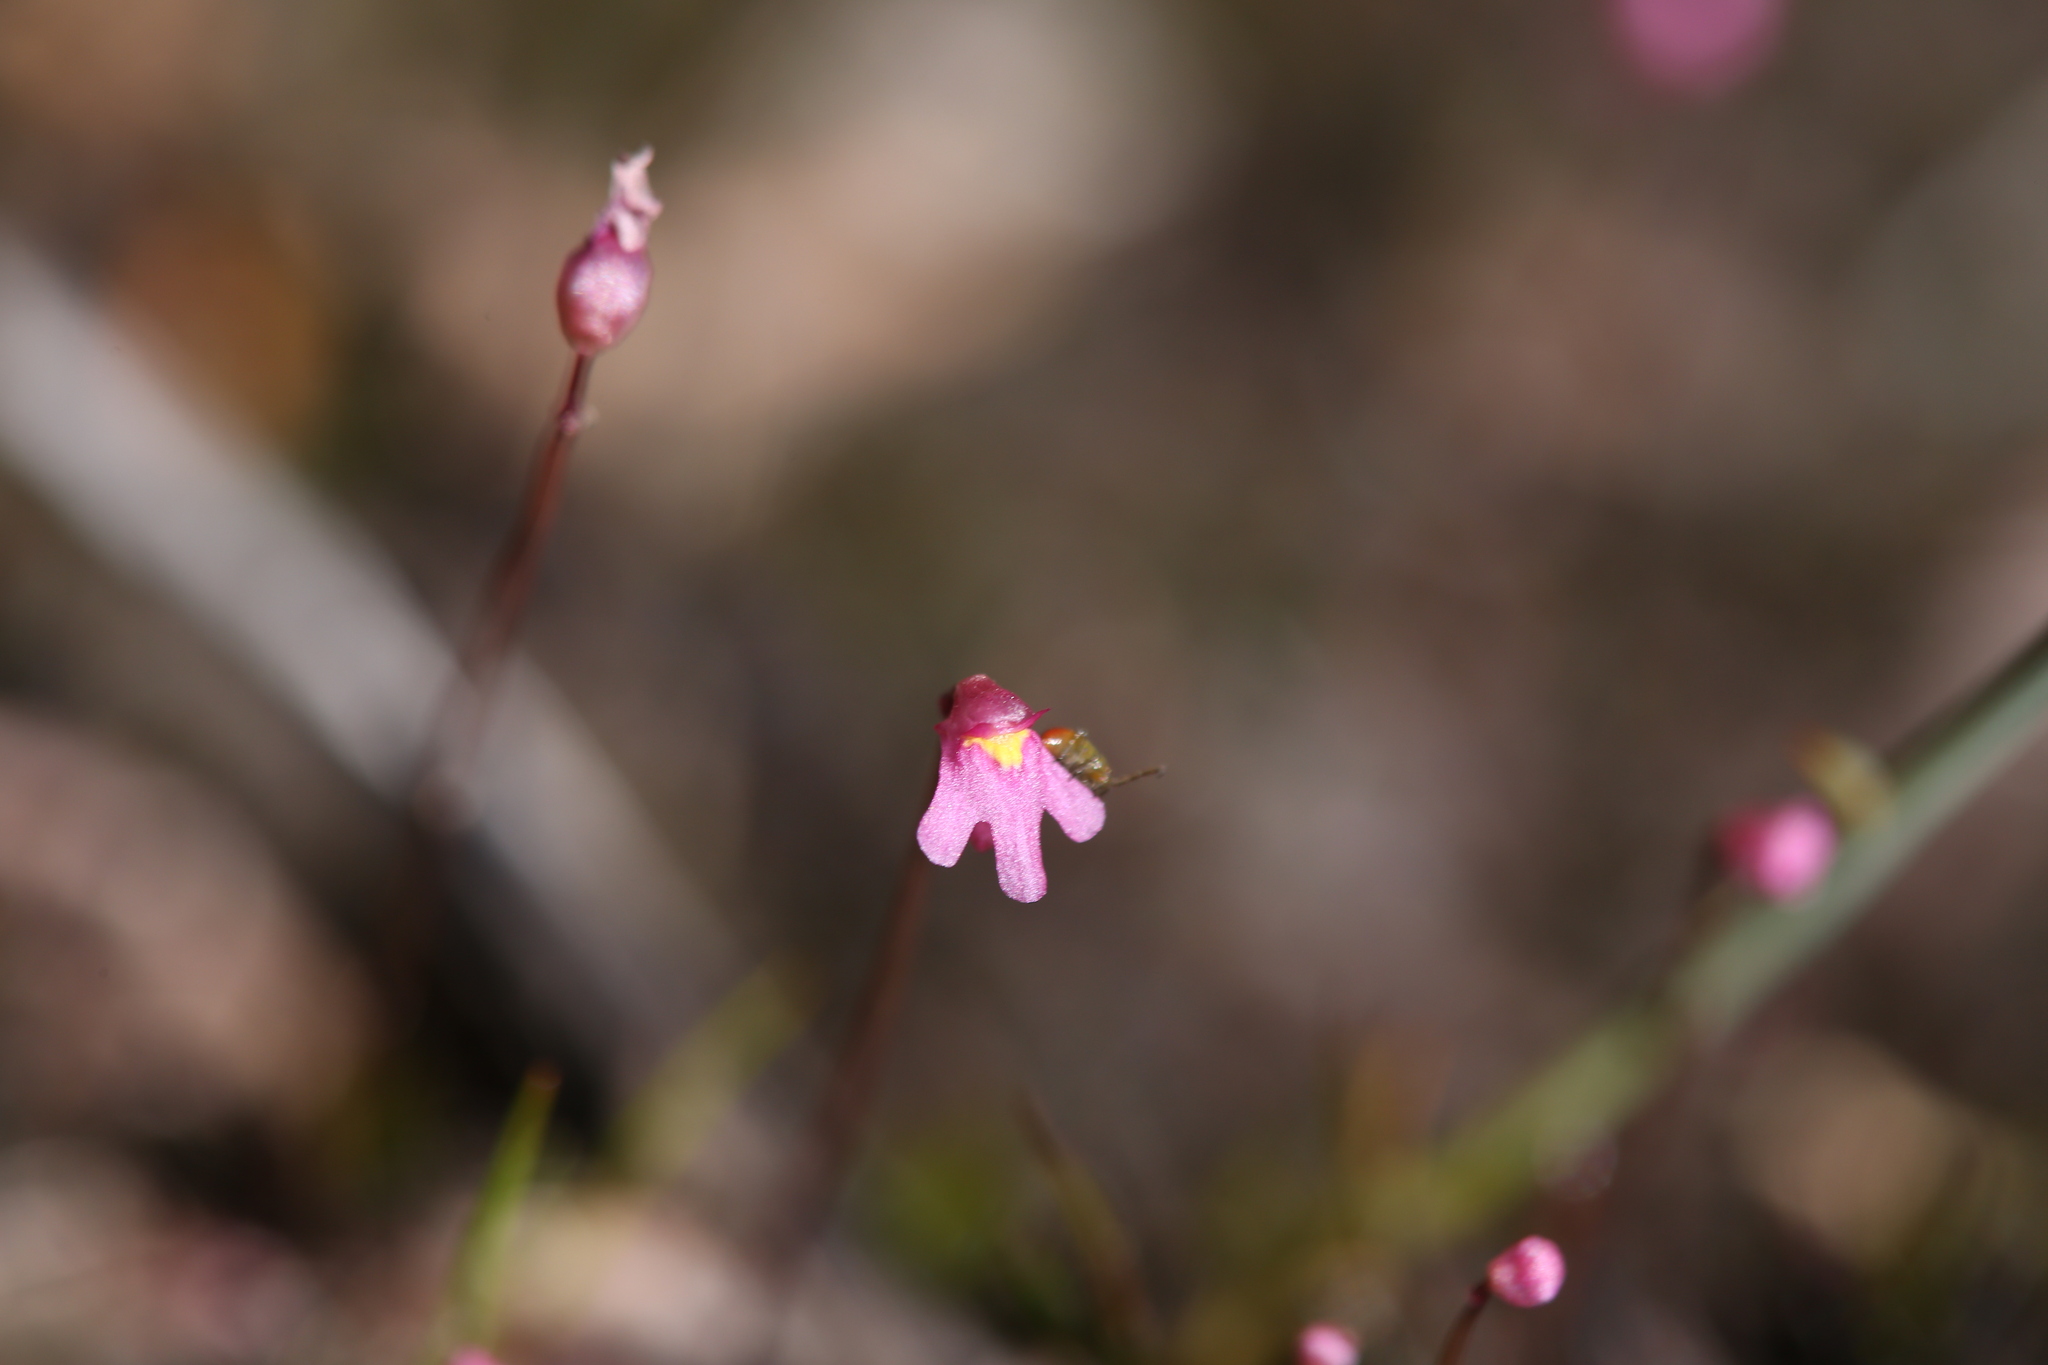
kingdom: Plantae
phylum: Tracheophyta
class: Magnoliopsida
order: Lamiales
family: Lentibulariaceae
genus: Utricularia
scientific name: Utricularia tenella
